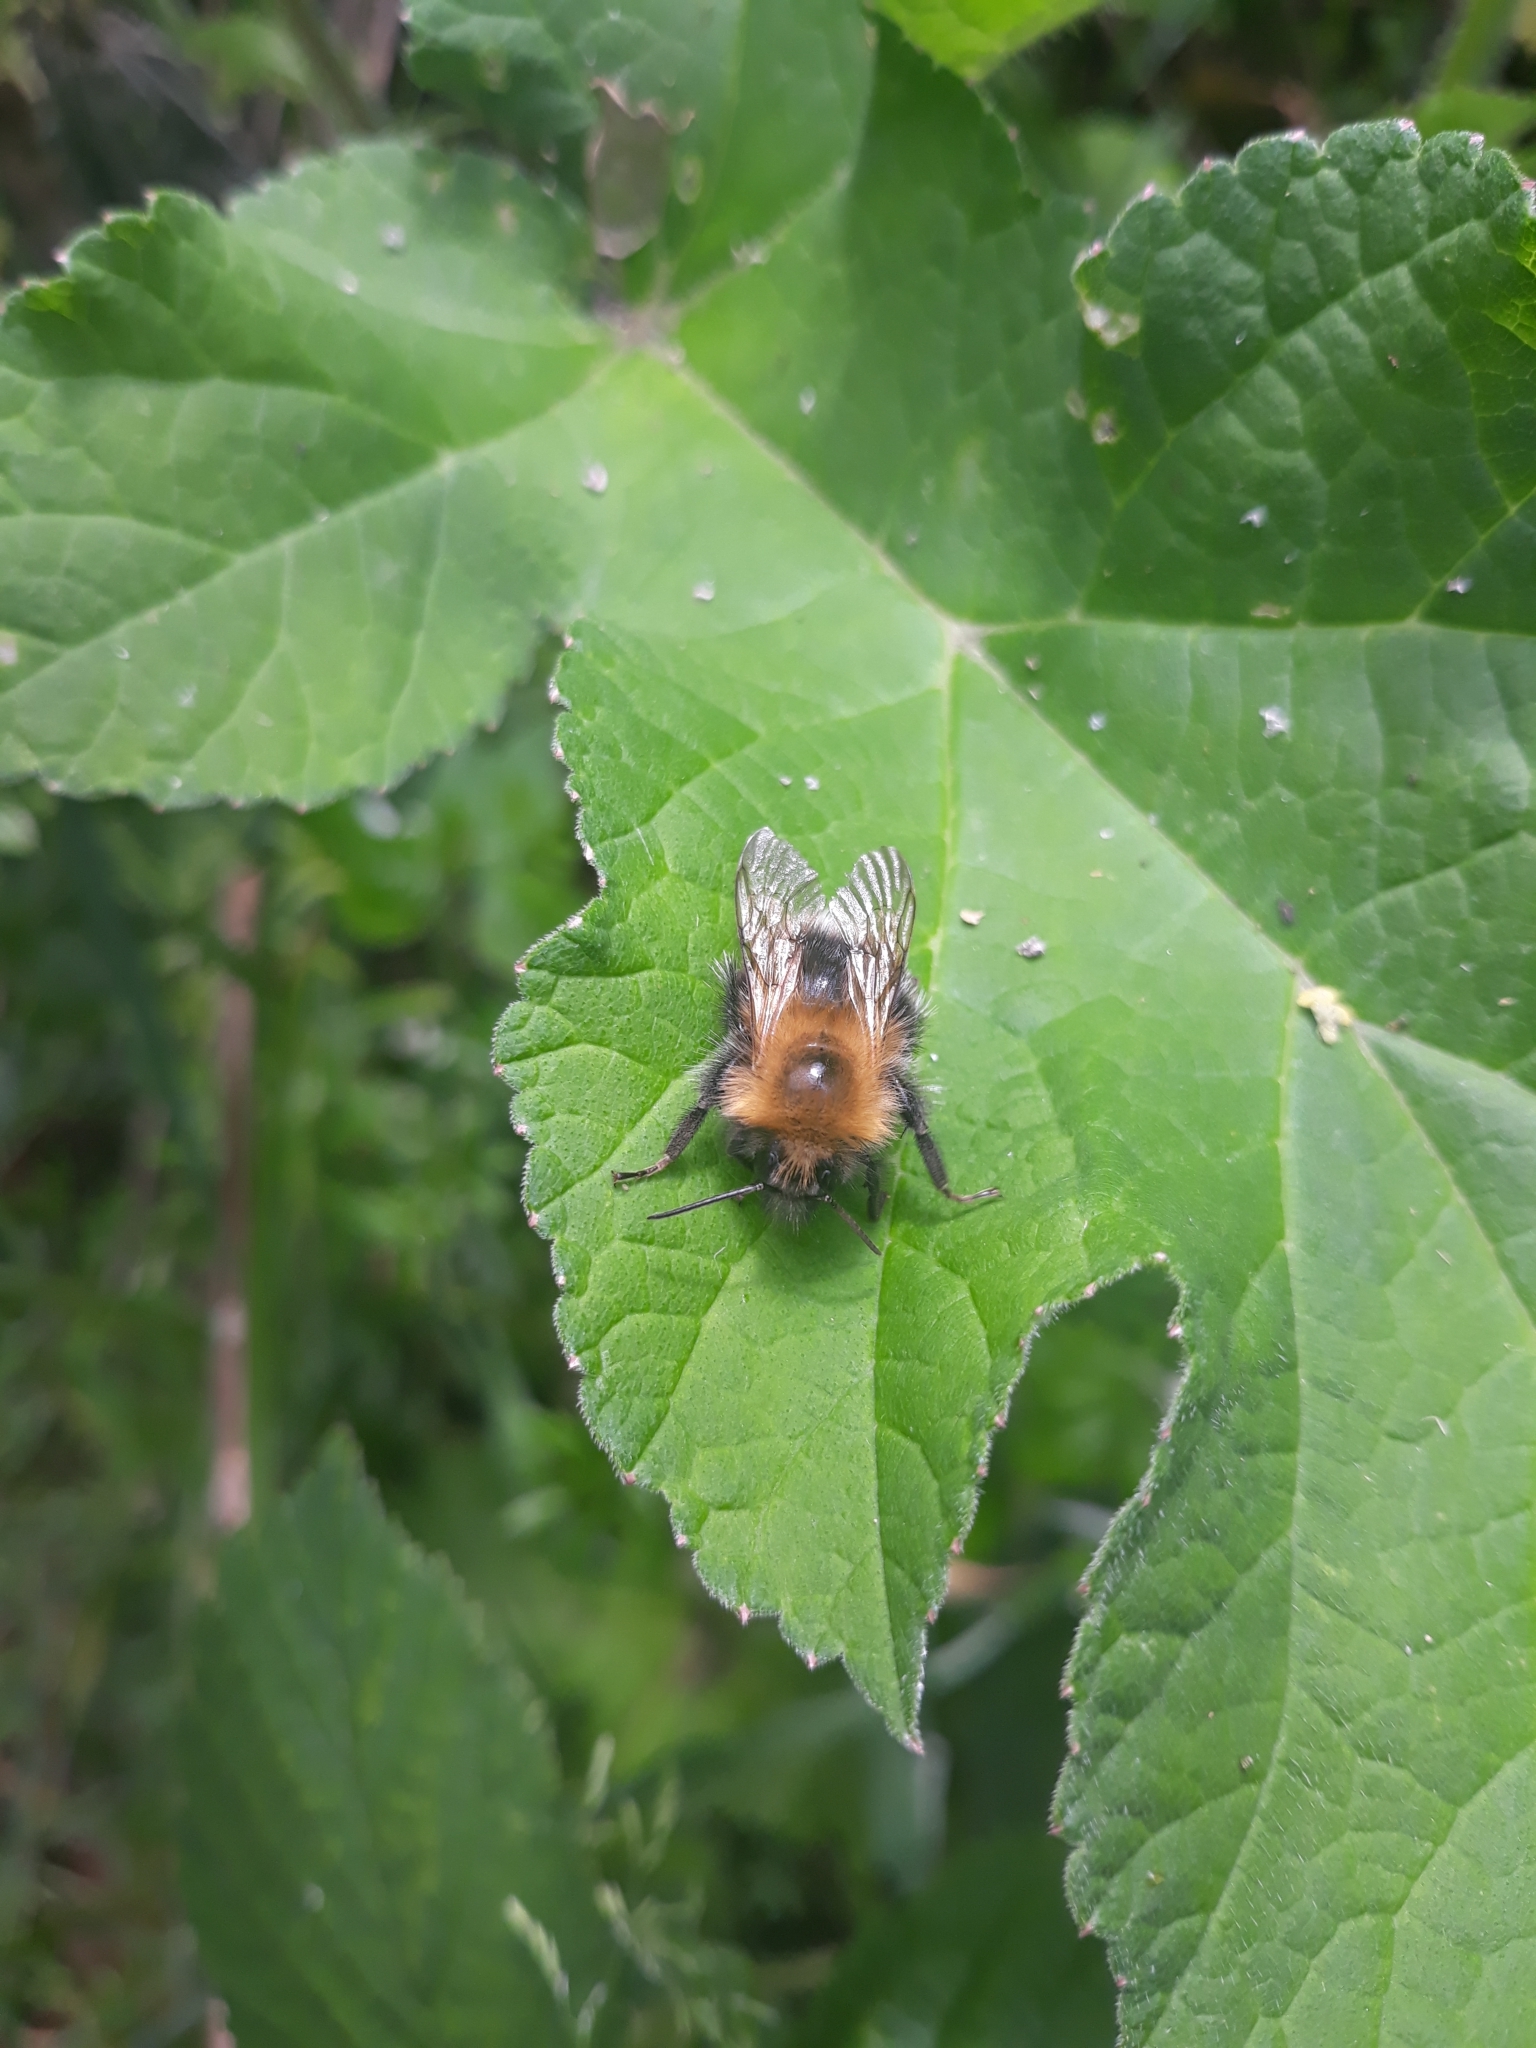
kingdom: Animalia
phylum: Arthropoda
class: Insecta
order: Hymenoptera
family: Apidae
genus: Bombus
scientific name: Bombus hypnorum
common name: New garden bumblebee
